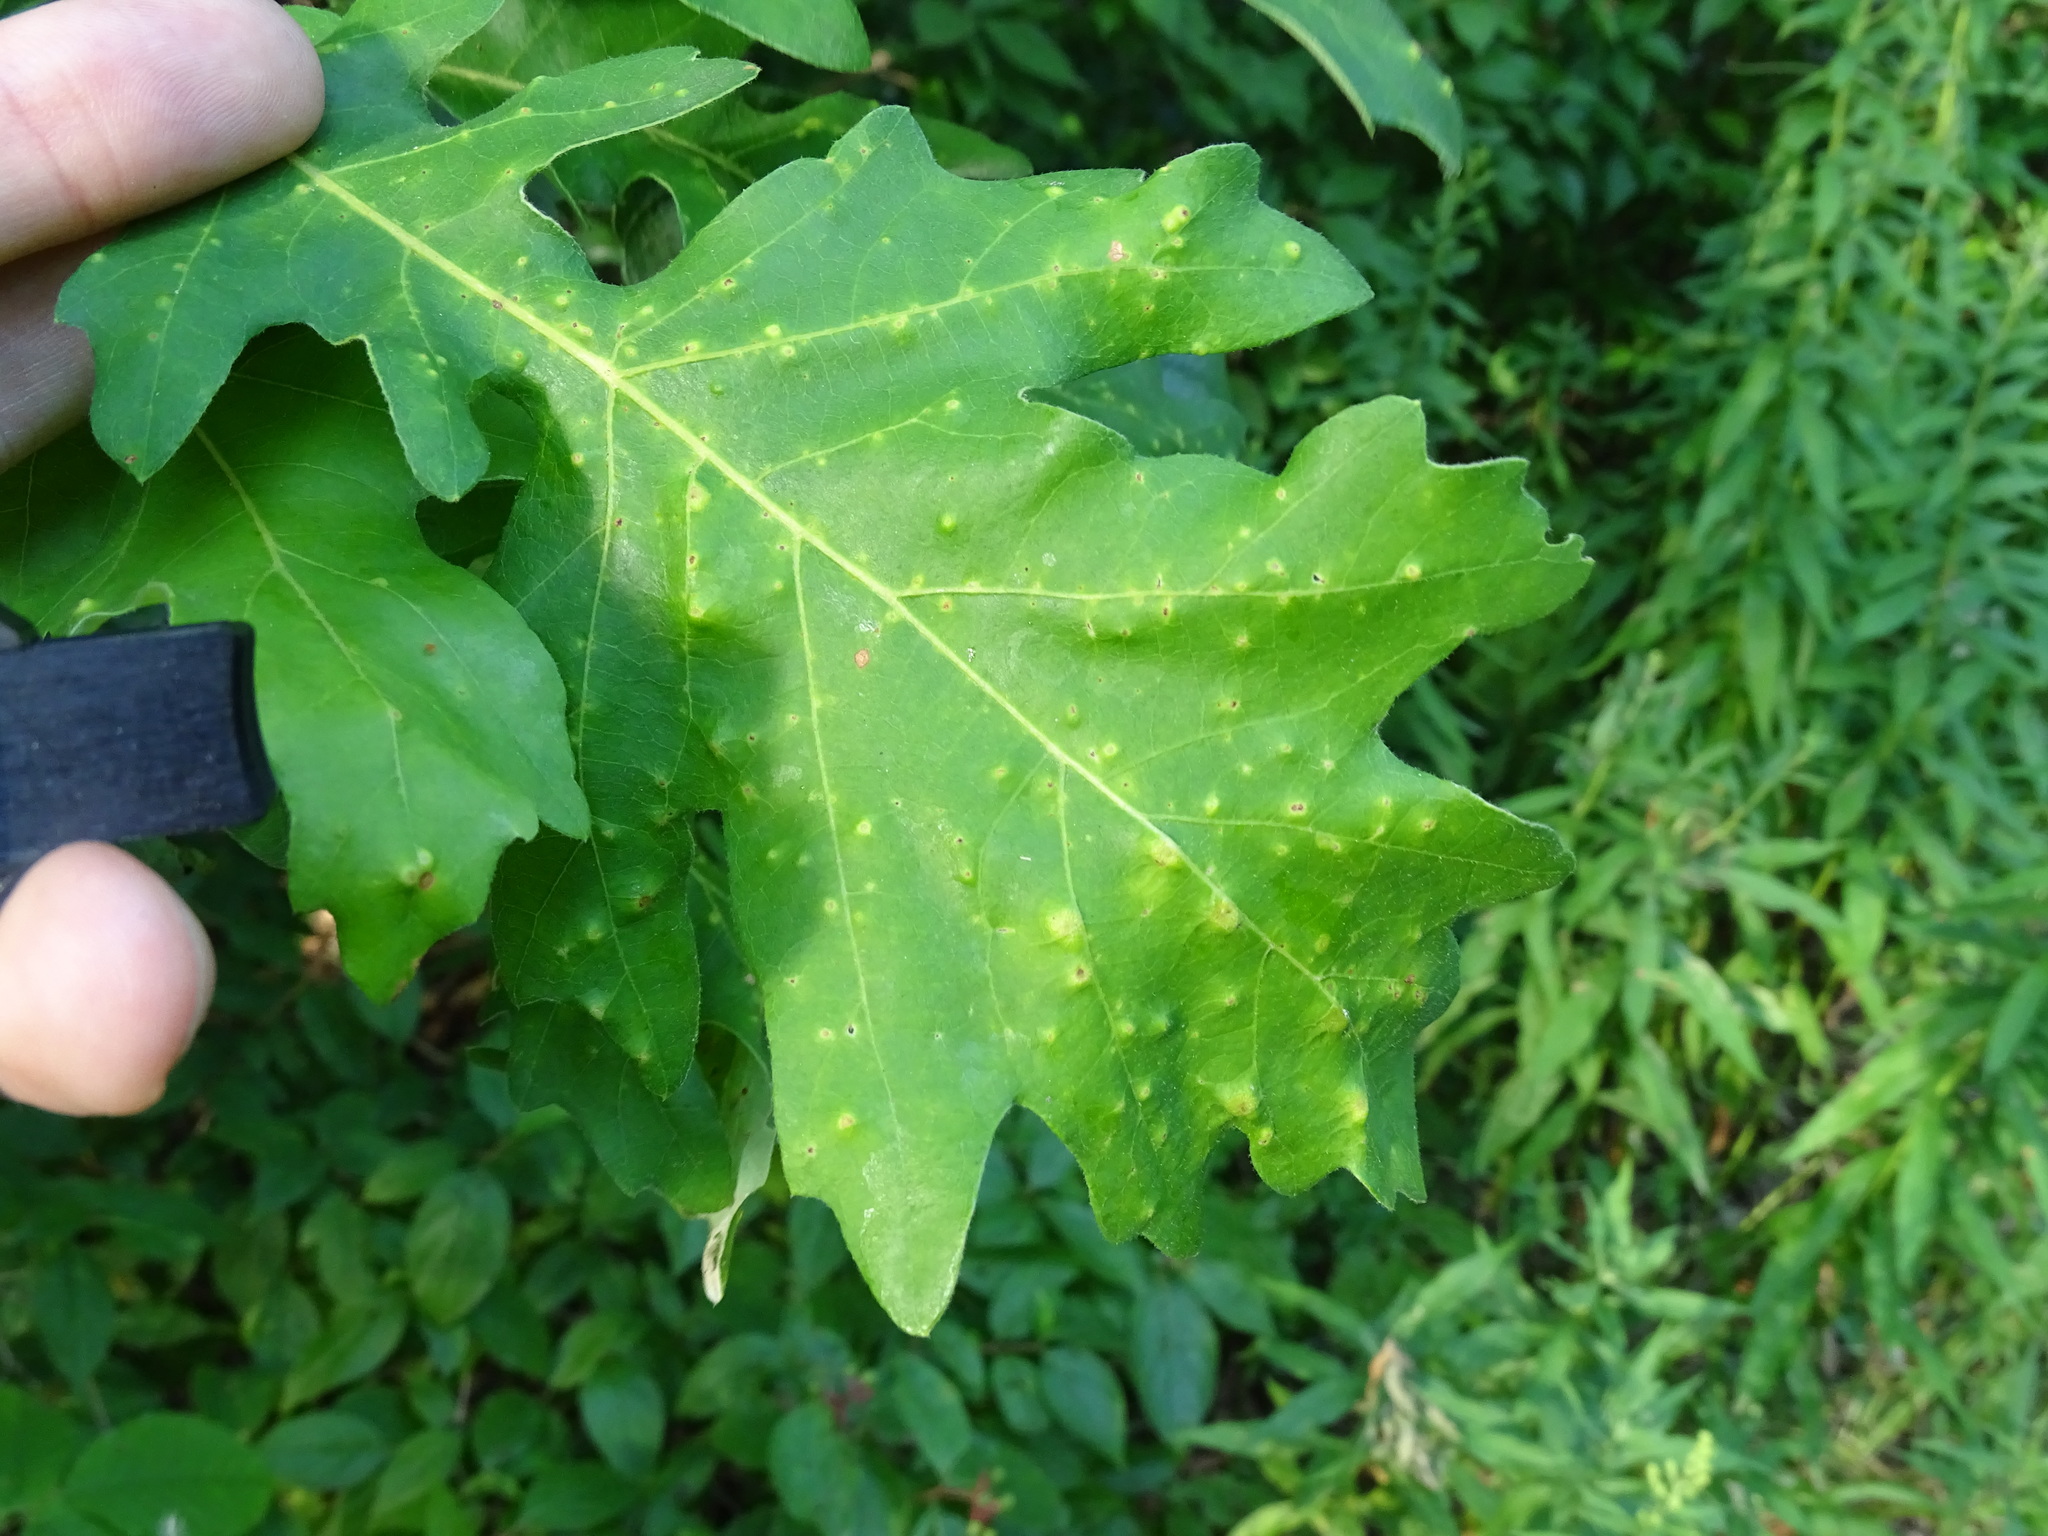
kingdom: Animalia
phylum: Arthropoda
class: Insecta
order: Hymenoptera
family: Cynipidae
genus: Neuroterus
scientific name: Neuroterus quercusverrucarum
